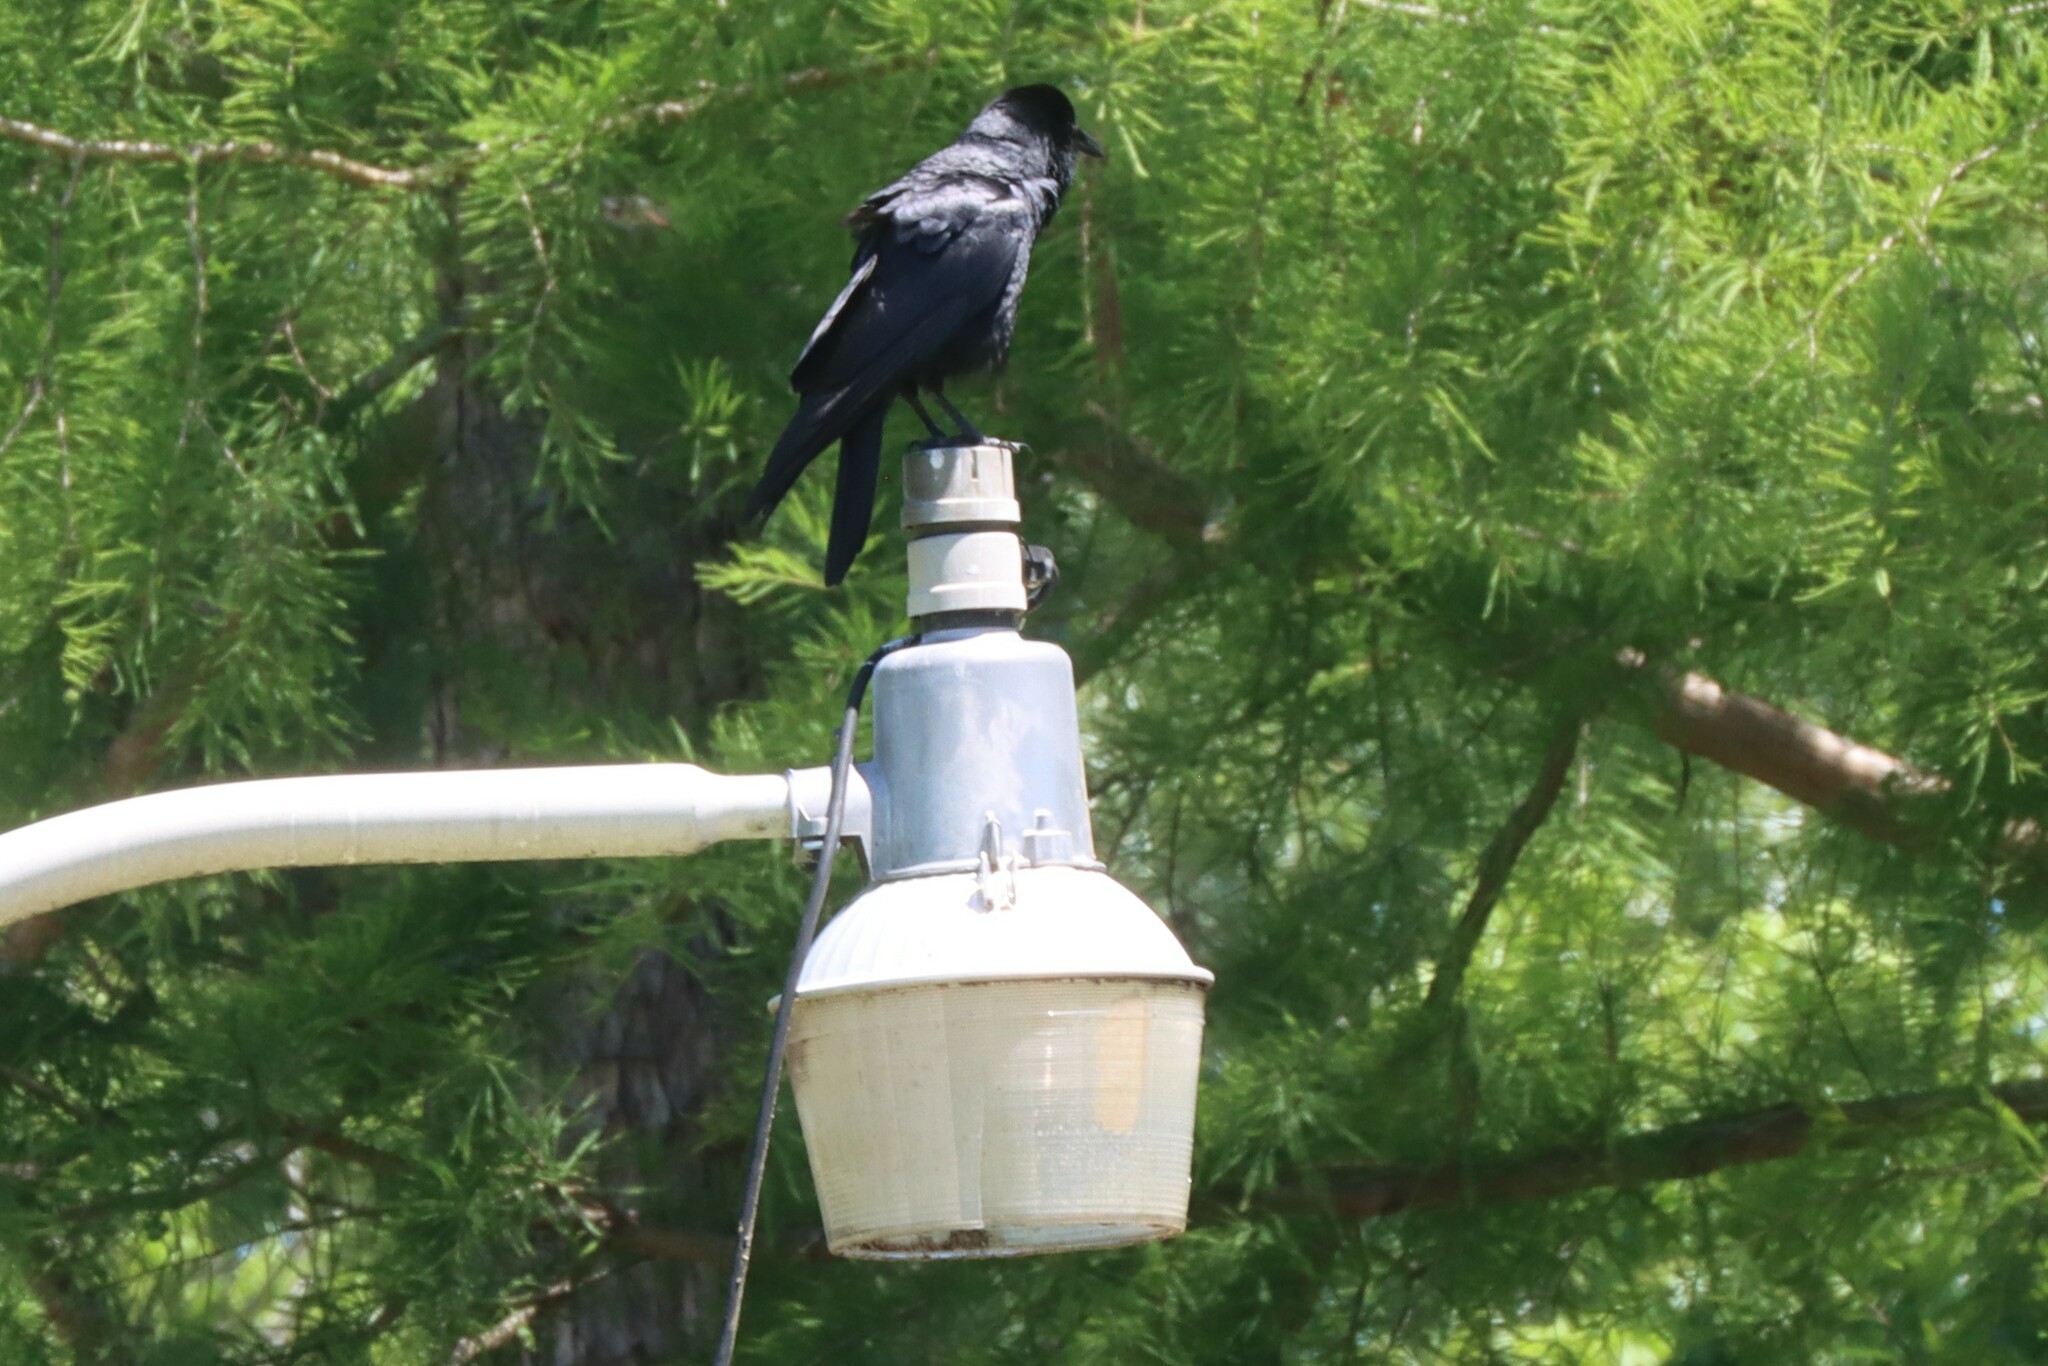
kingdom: Animalia
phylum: Chordata
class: Aves
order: Passeriformes
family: Corvidae
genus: Corvus
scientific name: Corvus ossifragus
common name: Fish crow
